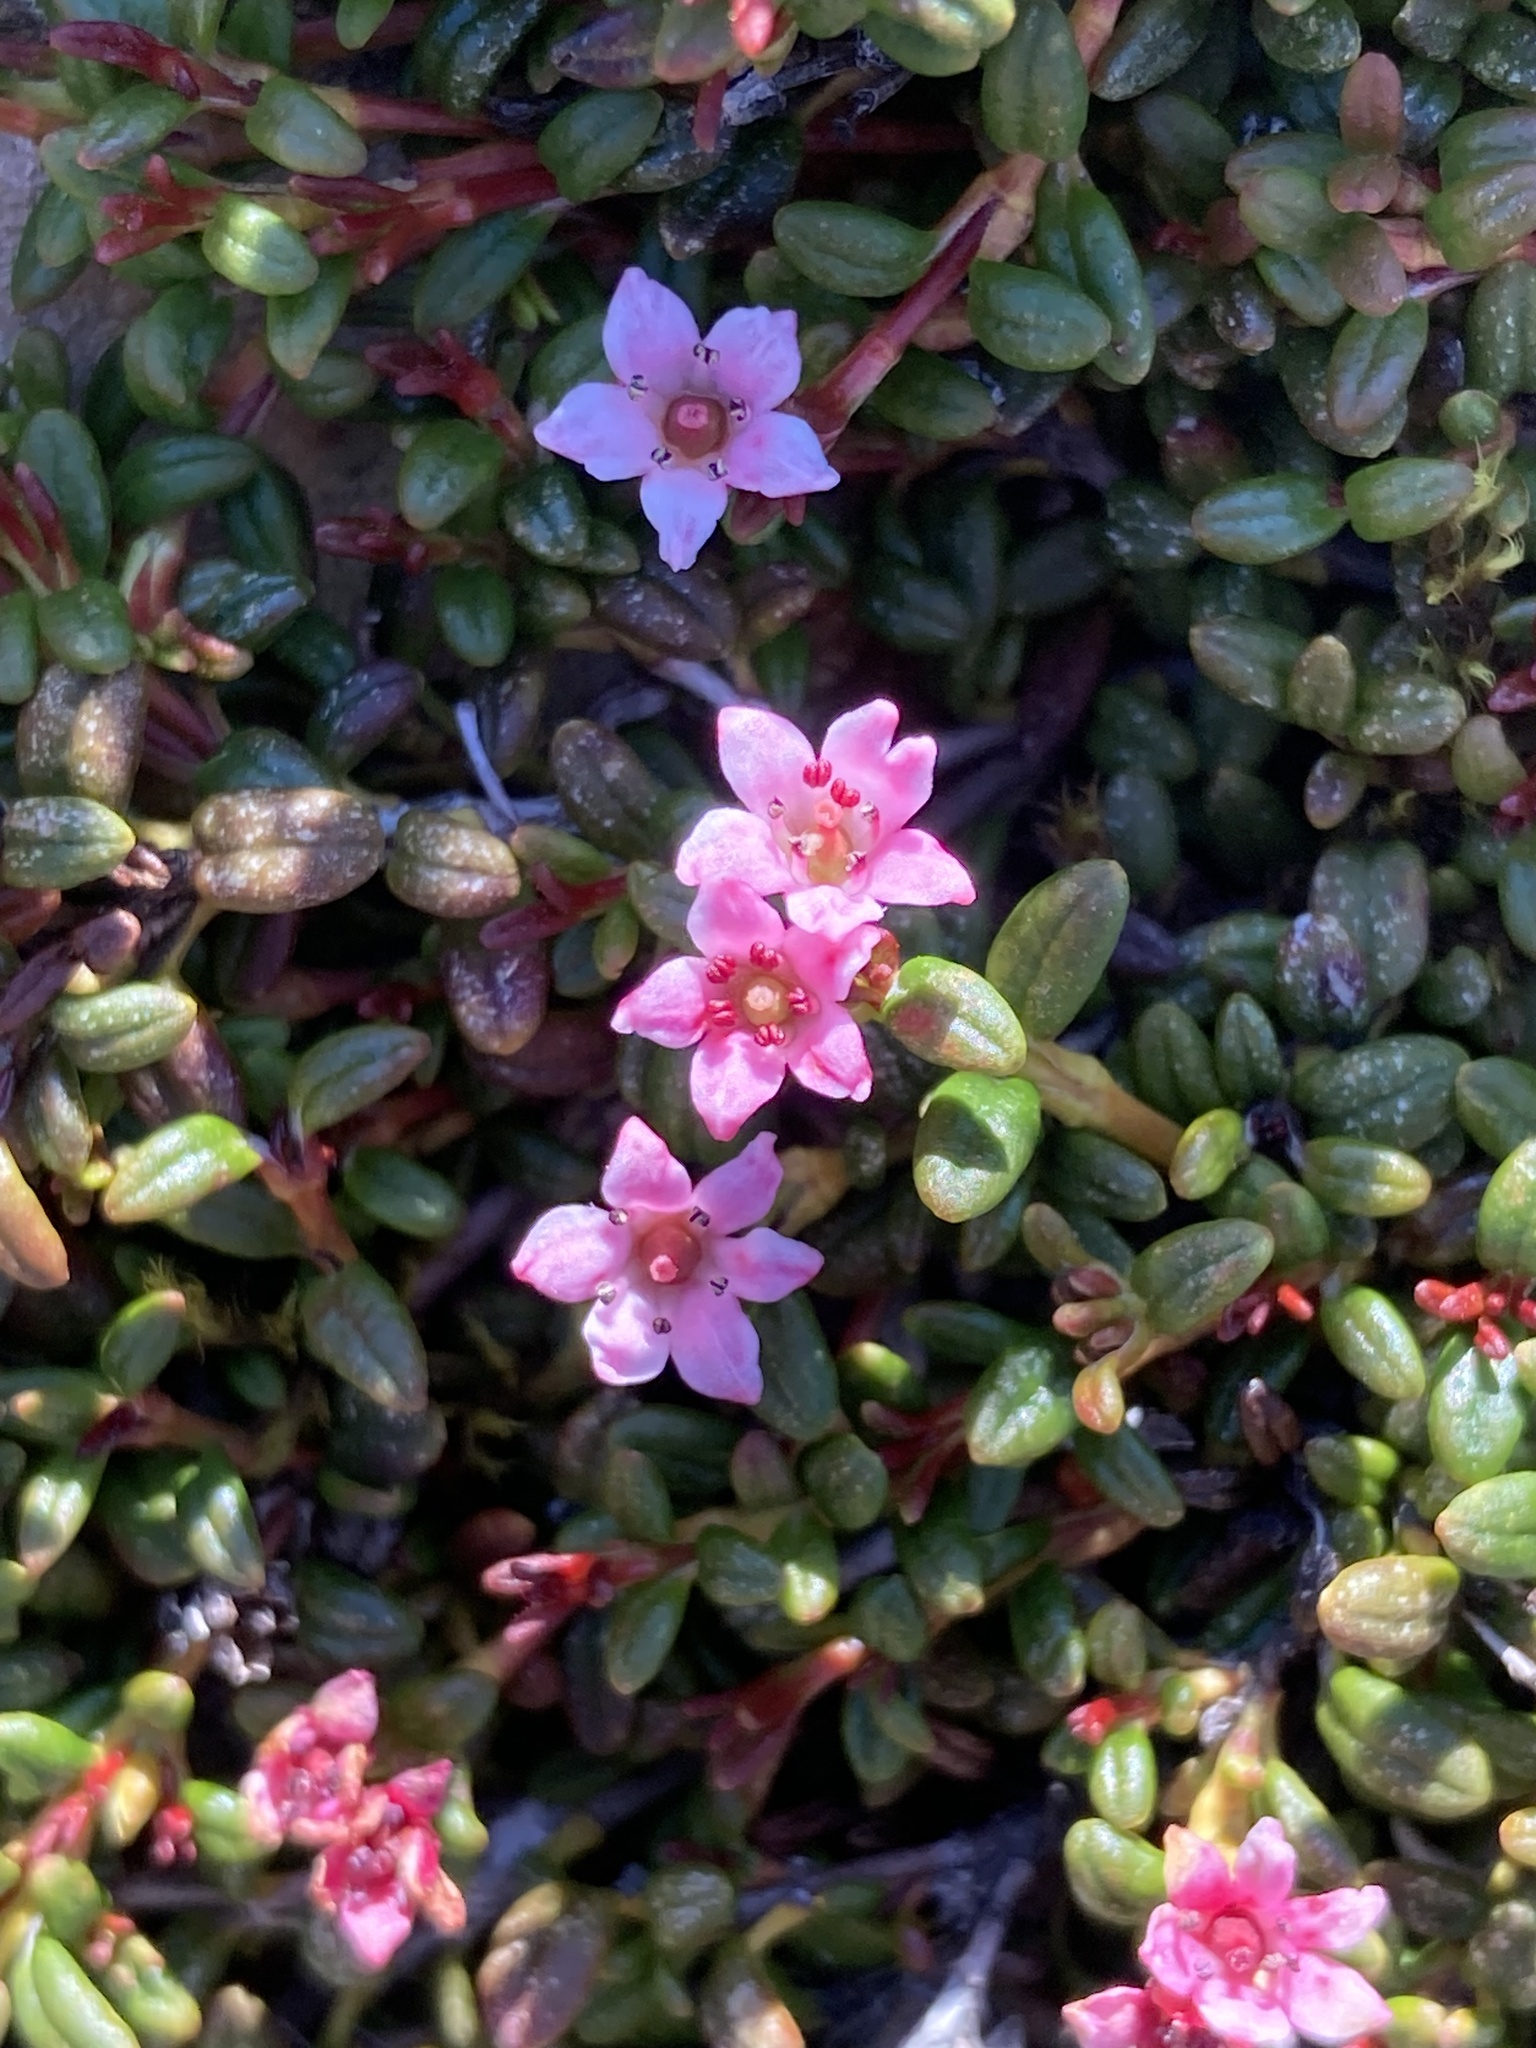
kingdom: Plantae
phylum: Tracheophyta
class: Magnoliopsida
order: Ericales
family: Ericaceae
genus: Kalmia
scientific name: Kalmia procumbens
